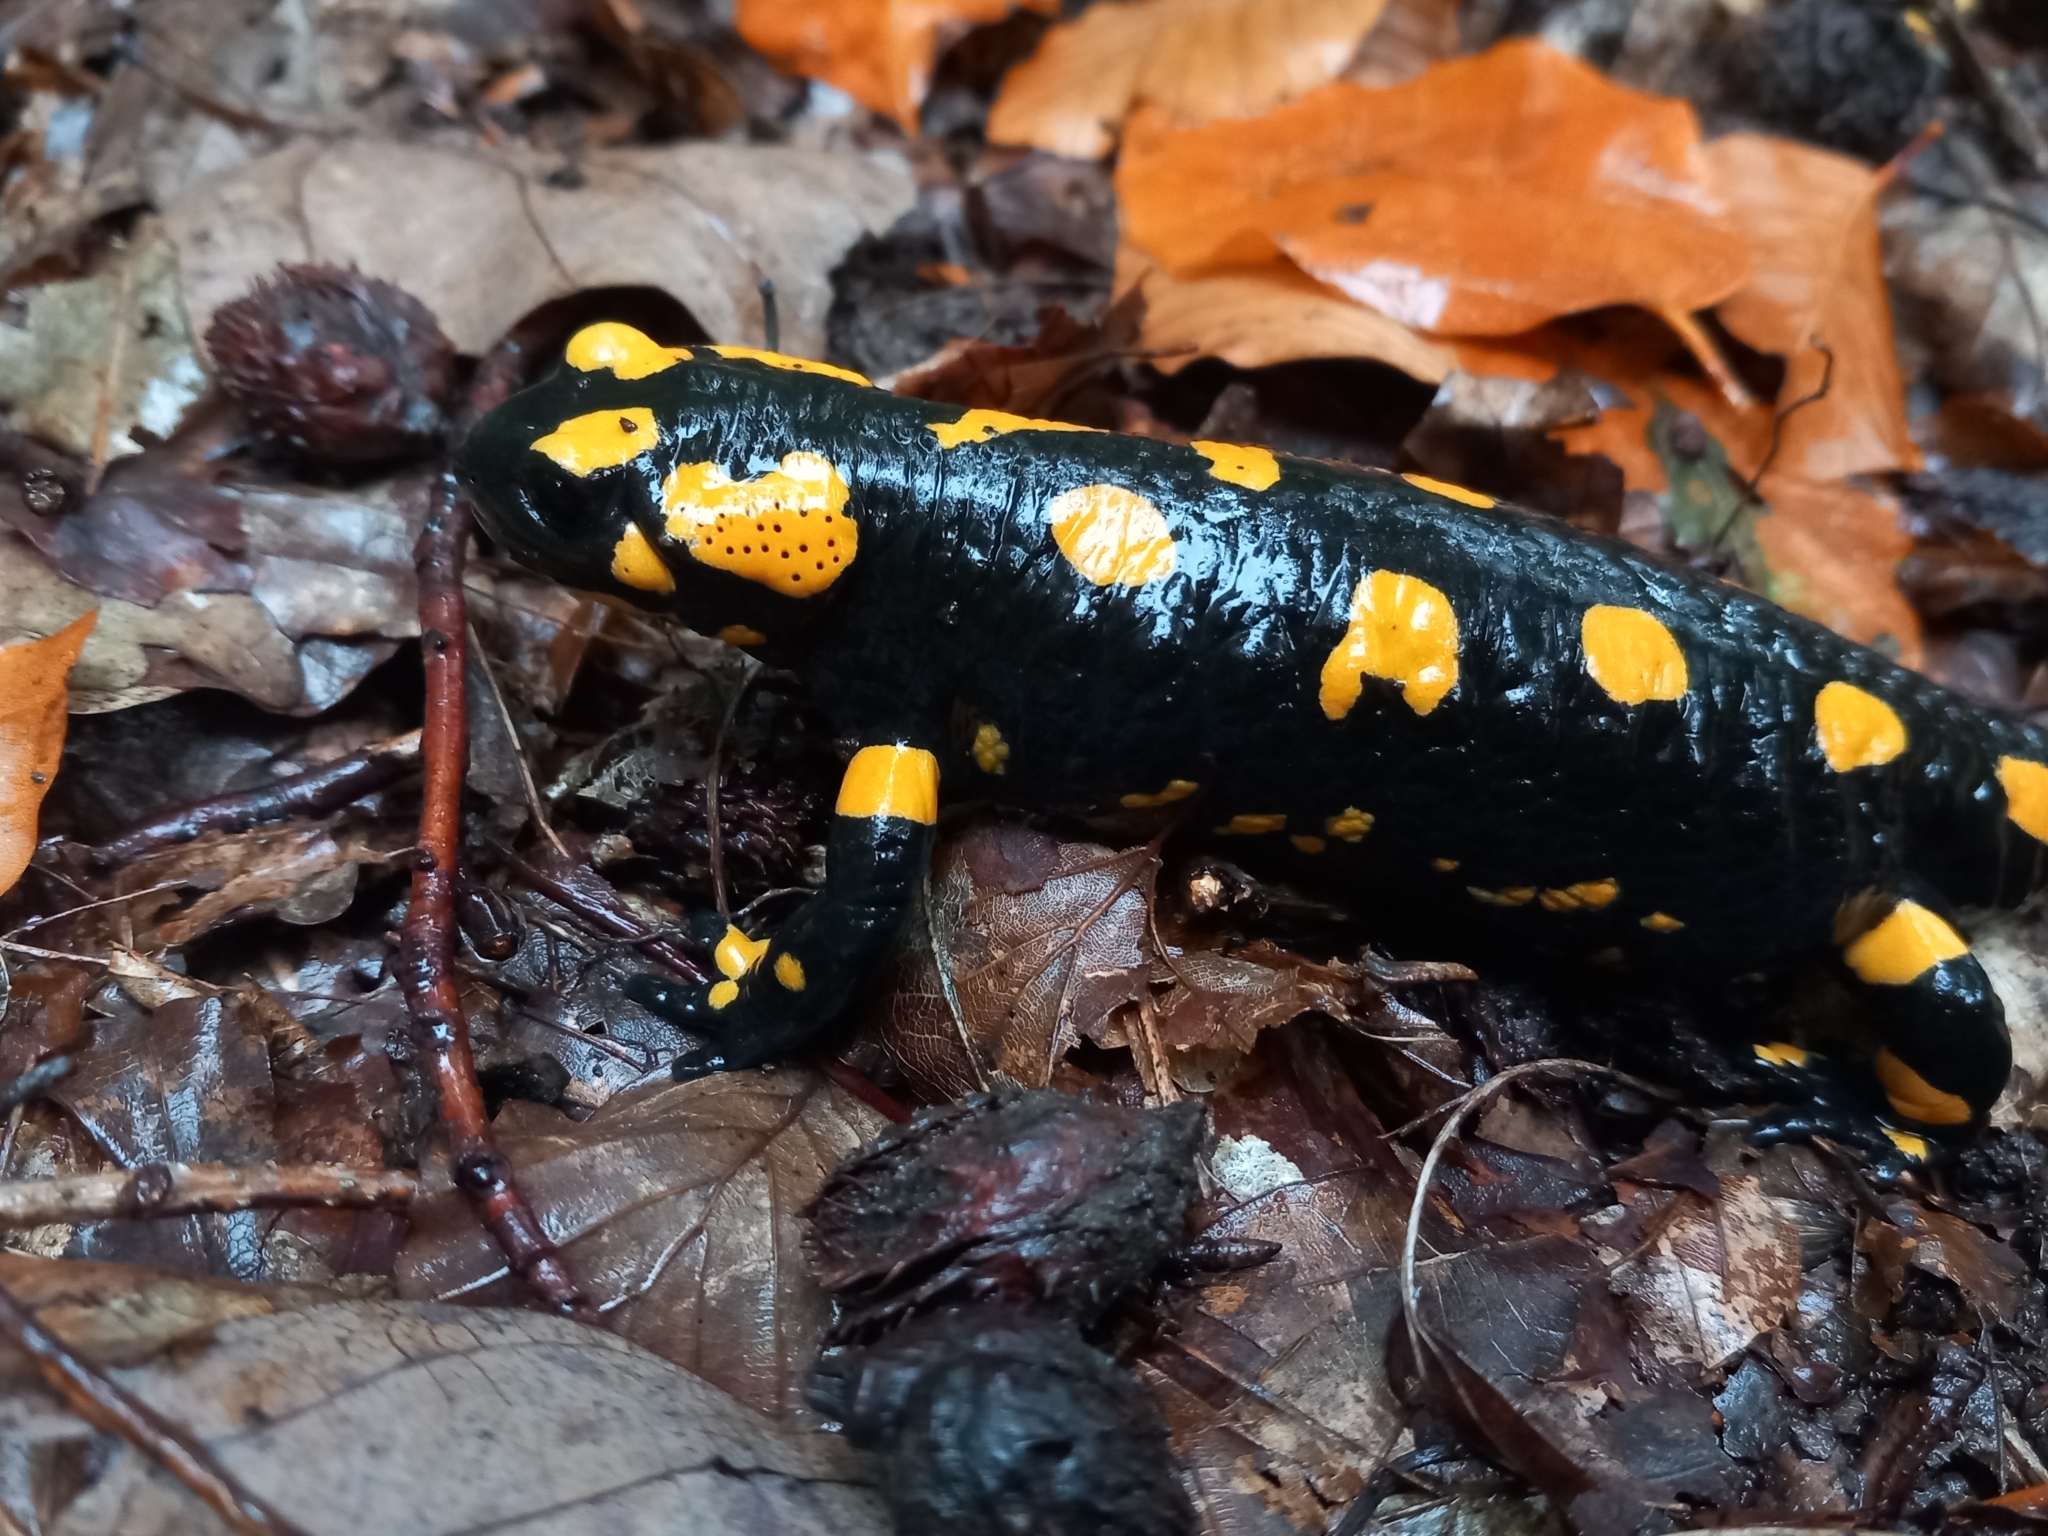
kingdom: Animalia
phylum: Chordata
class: Amphibia
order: Caudata
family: Salamandridae
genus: Salamandra
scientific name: Salamandra salamandra
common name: Fire salamander
